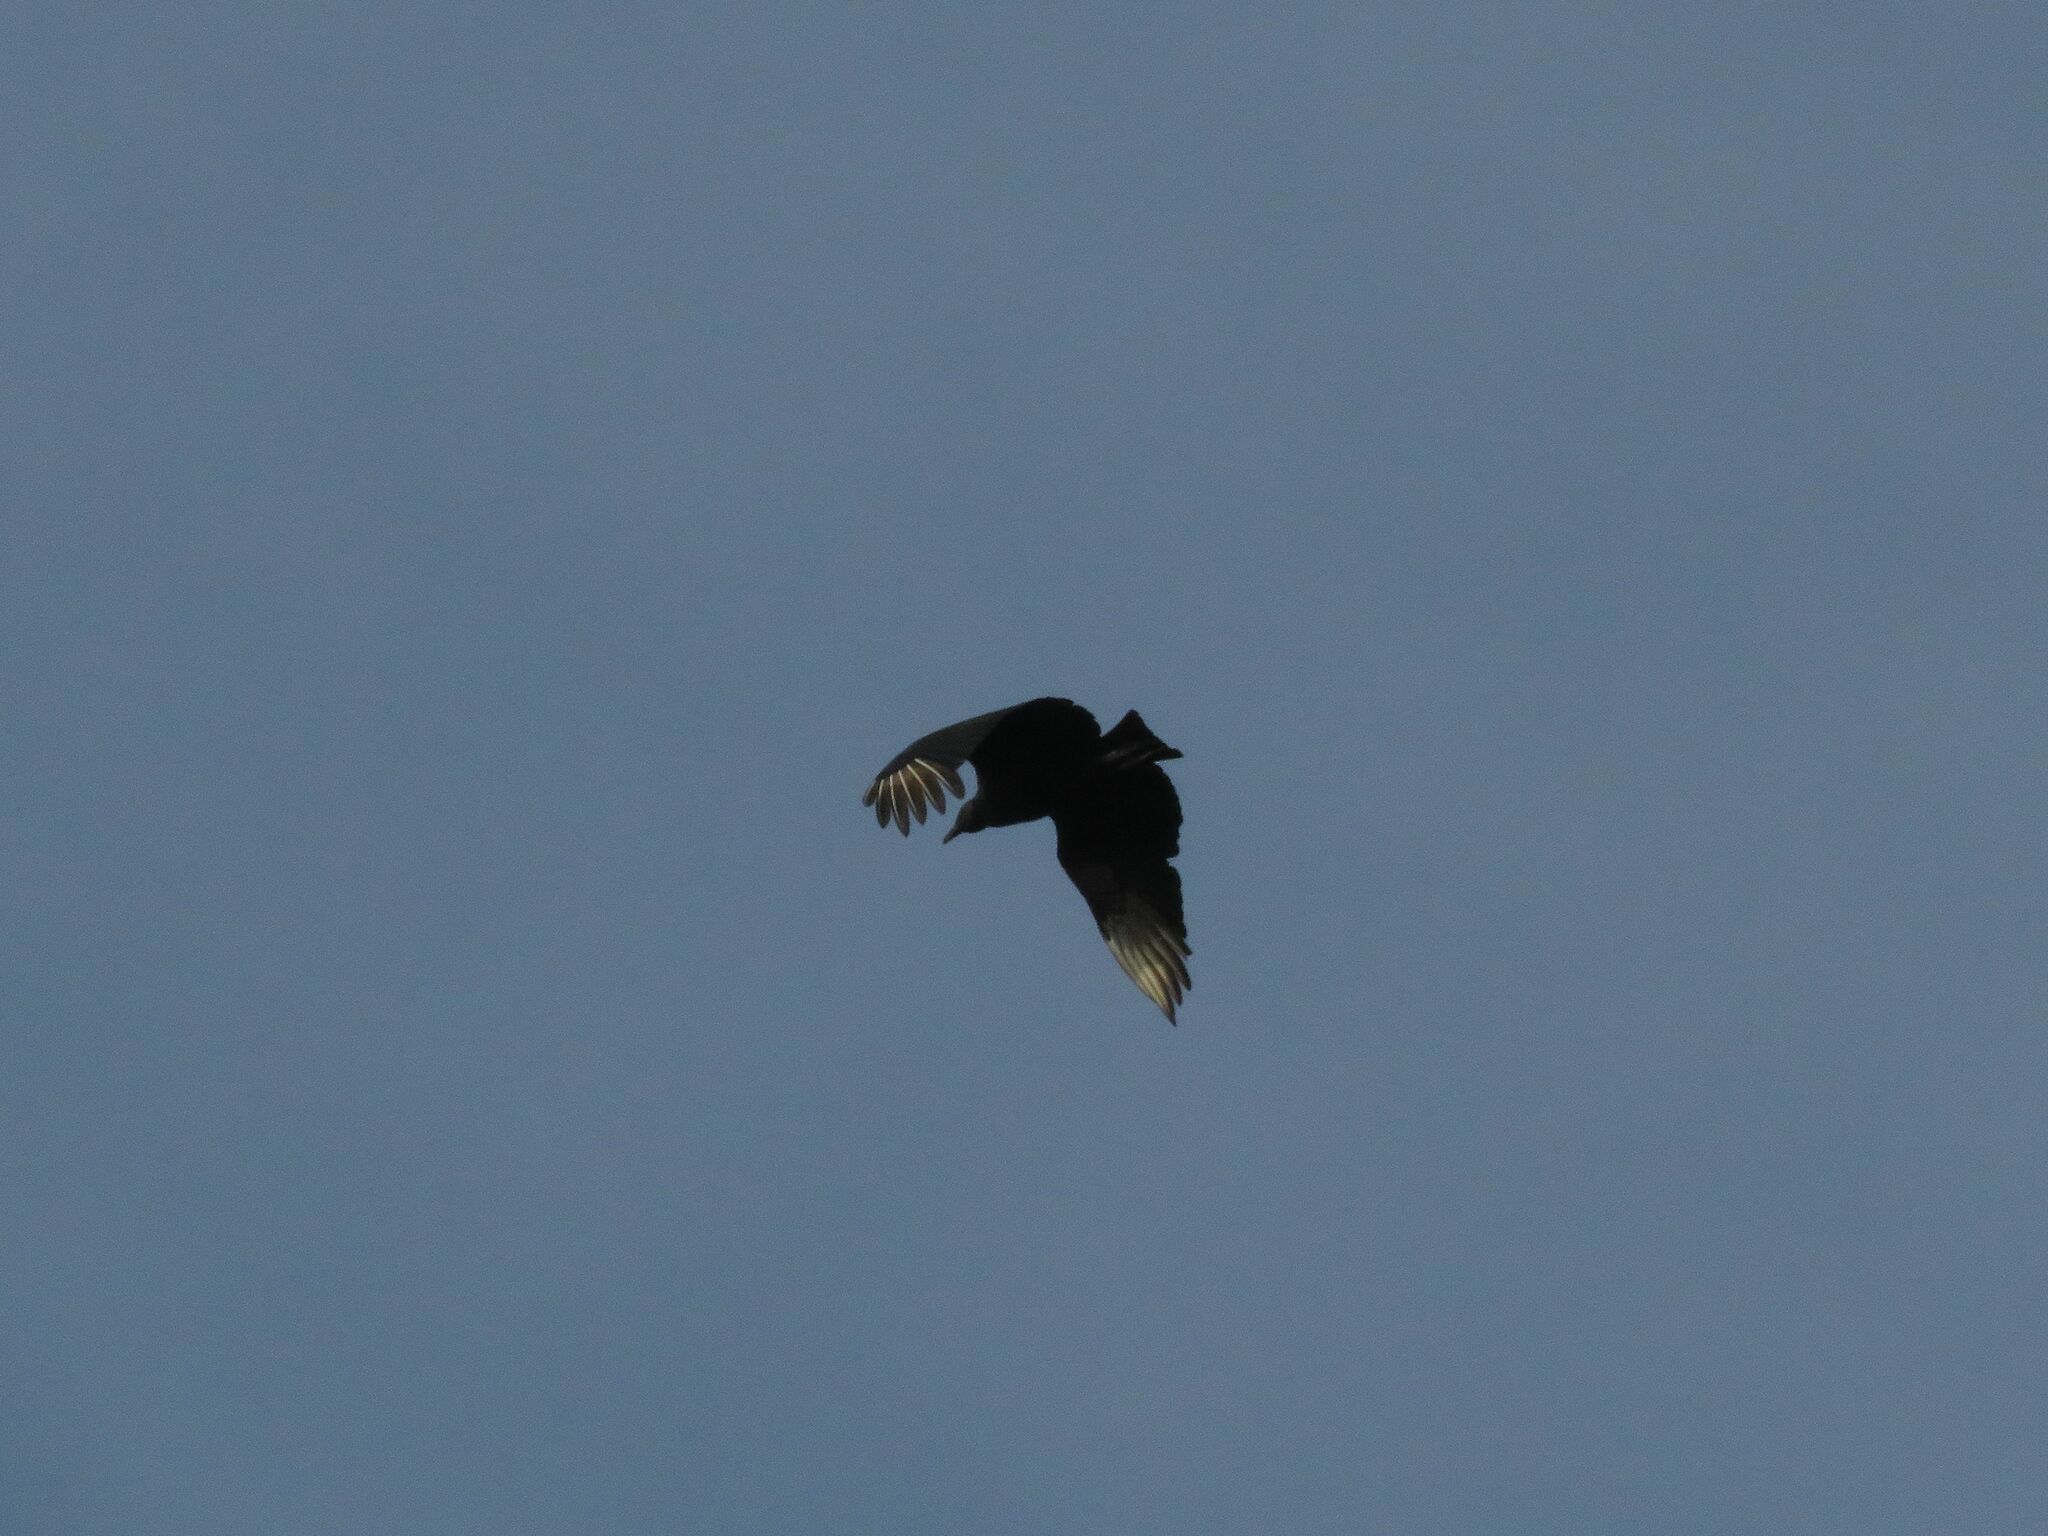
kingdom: Animalia
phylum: Chordata
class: Aves
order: Accipitriformes
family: Cathartidae
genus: Coragyps
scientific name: Coragyps atratus
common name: Black vulture
